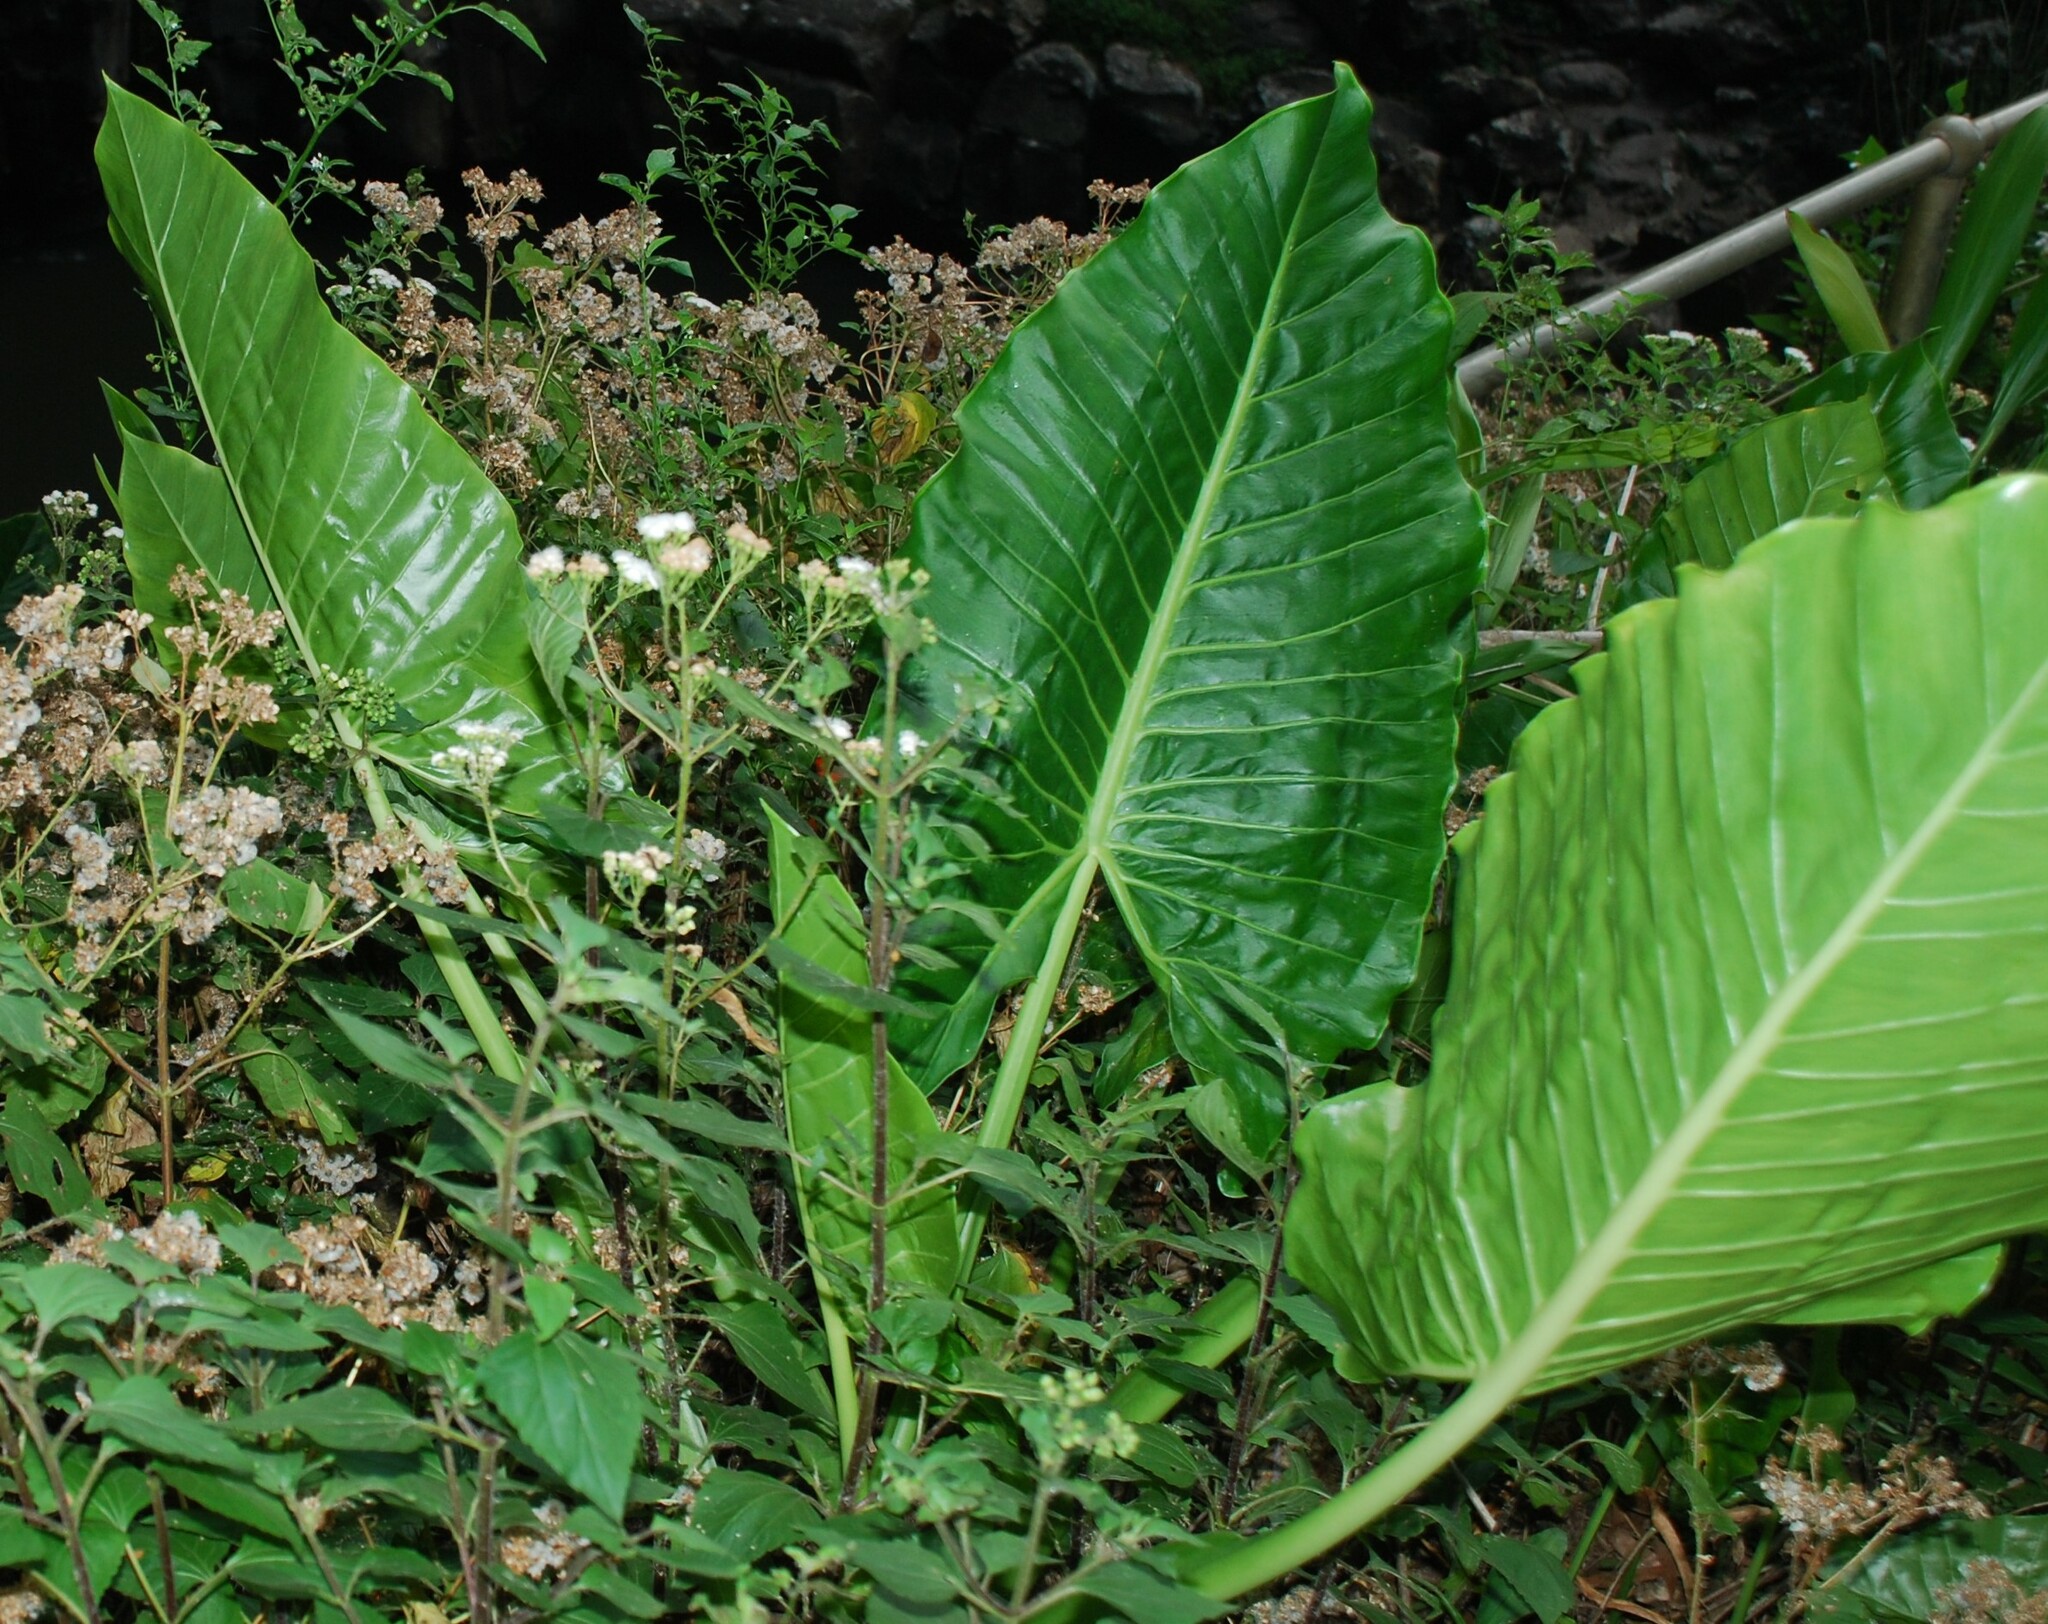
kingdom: Plantae
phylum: Tracheophyta
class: Liliopsida
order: Alismatales
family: Araceae
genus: Alocasia
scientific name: Alocasia brisbanensis
